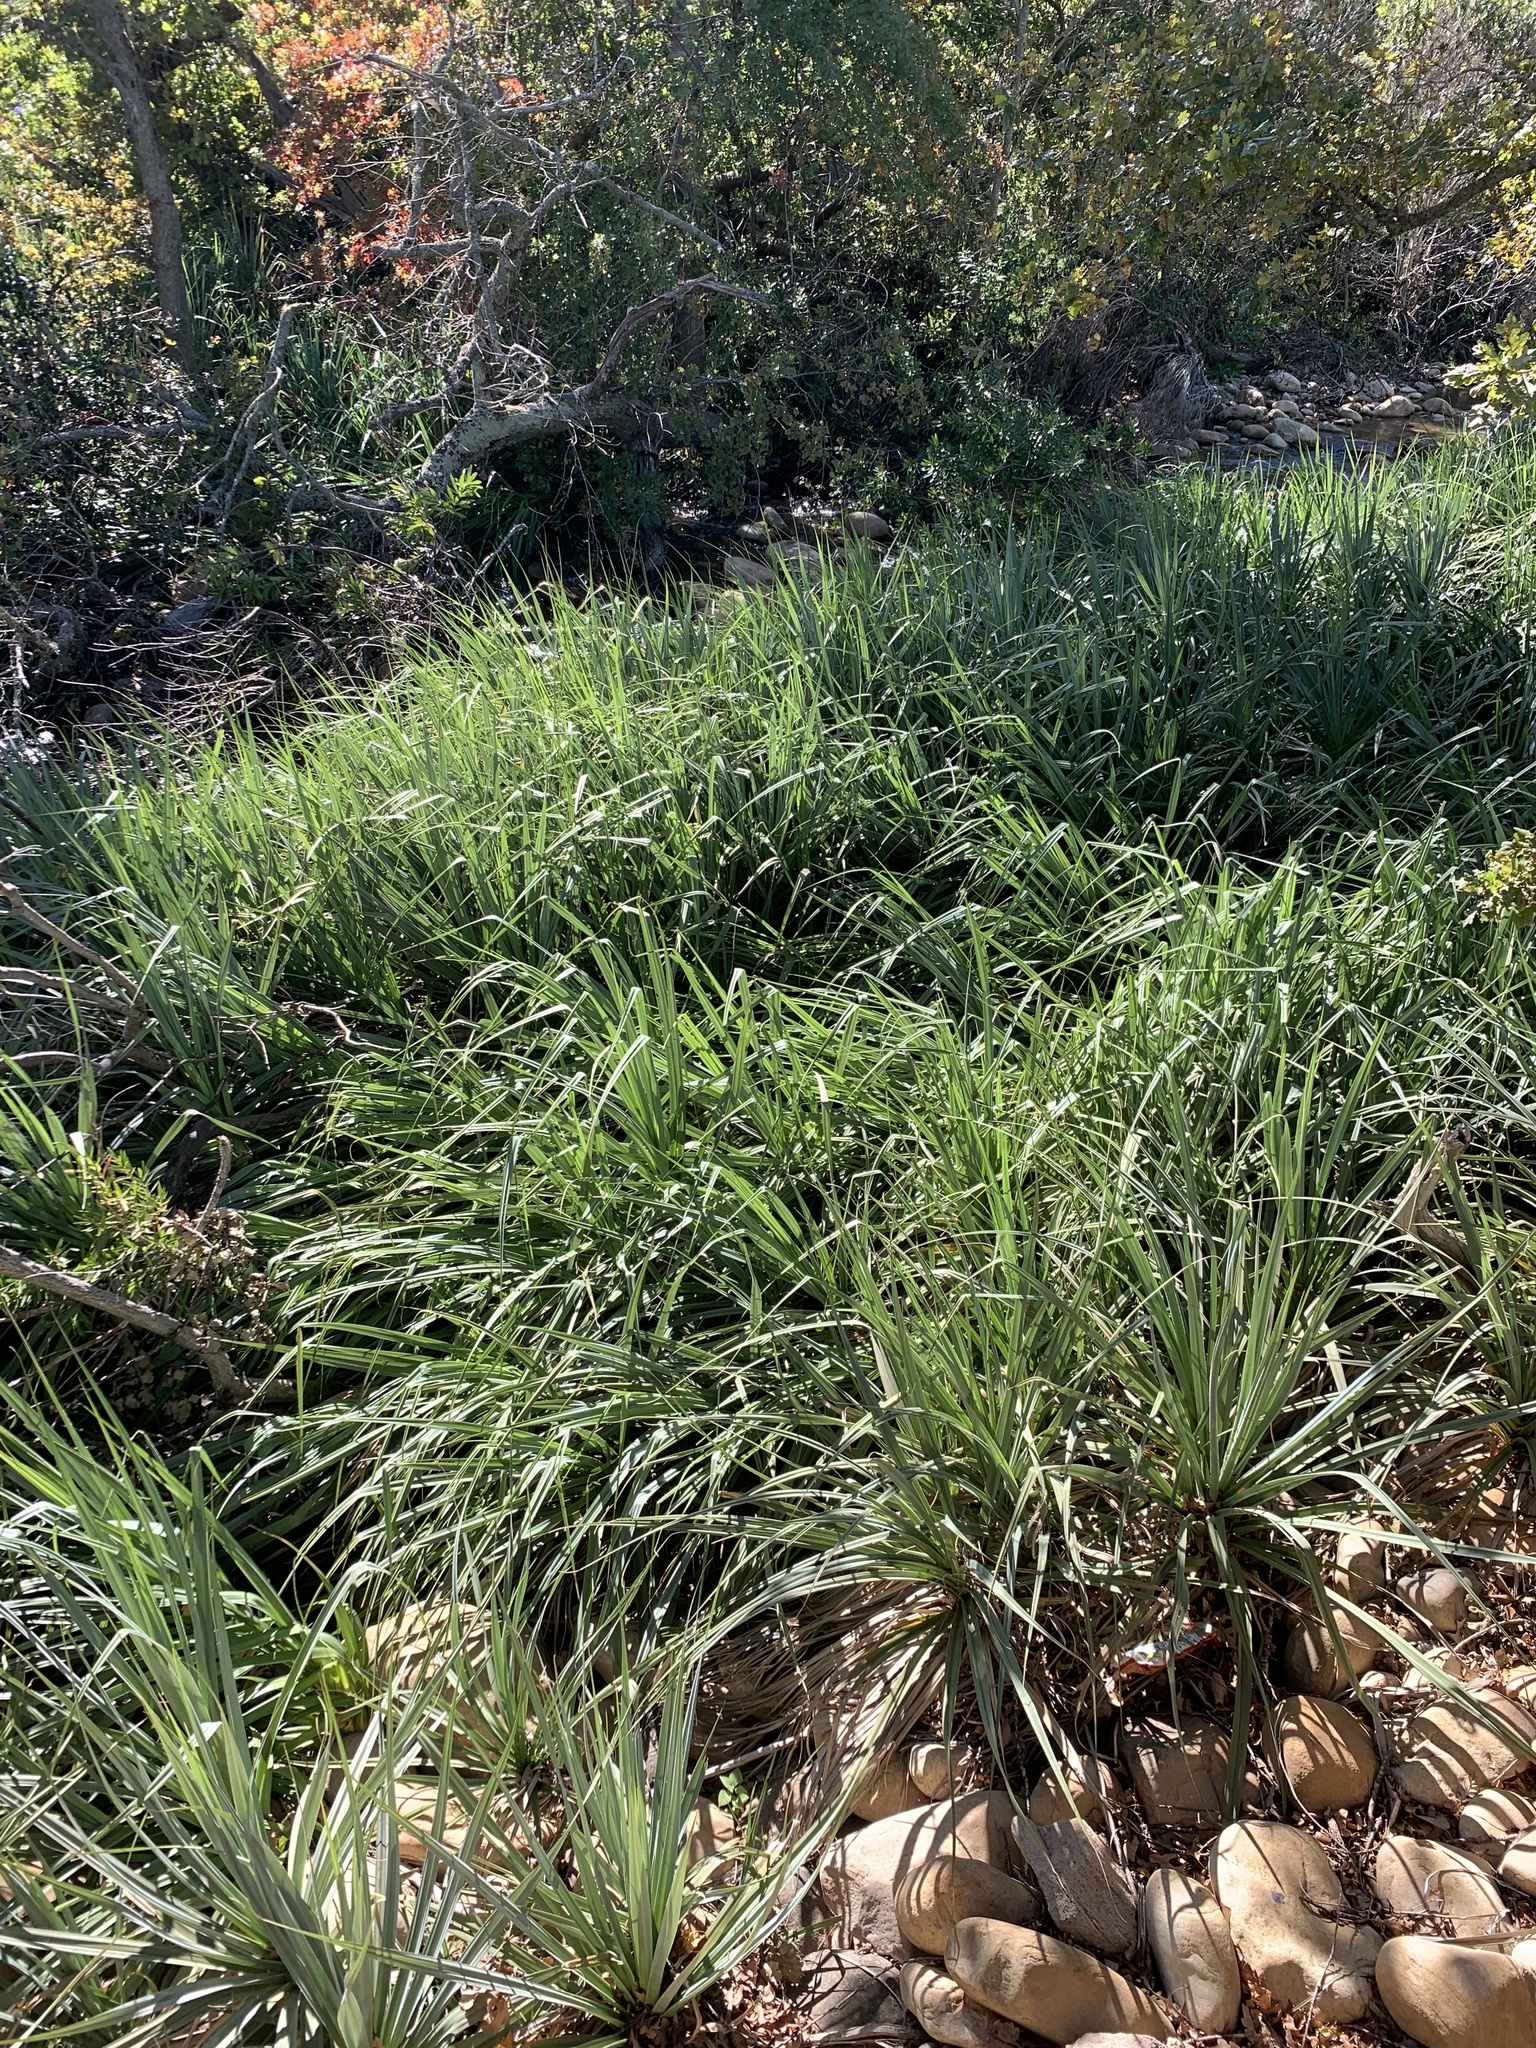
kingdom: Plantae
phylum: Tracheophyta
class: Liliopsida
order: Poales
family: Thurniaceae
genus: Prionium
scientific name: Prionium serratum
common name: Palmiet
